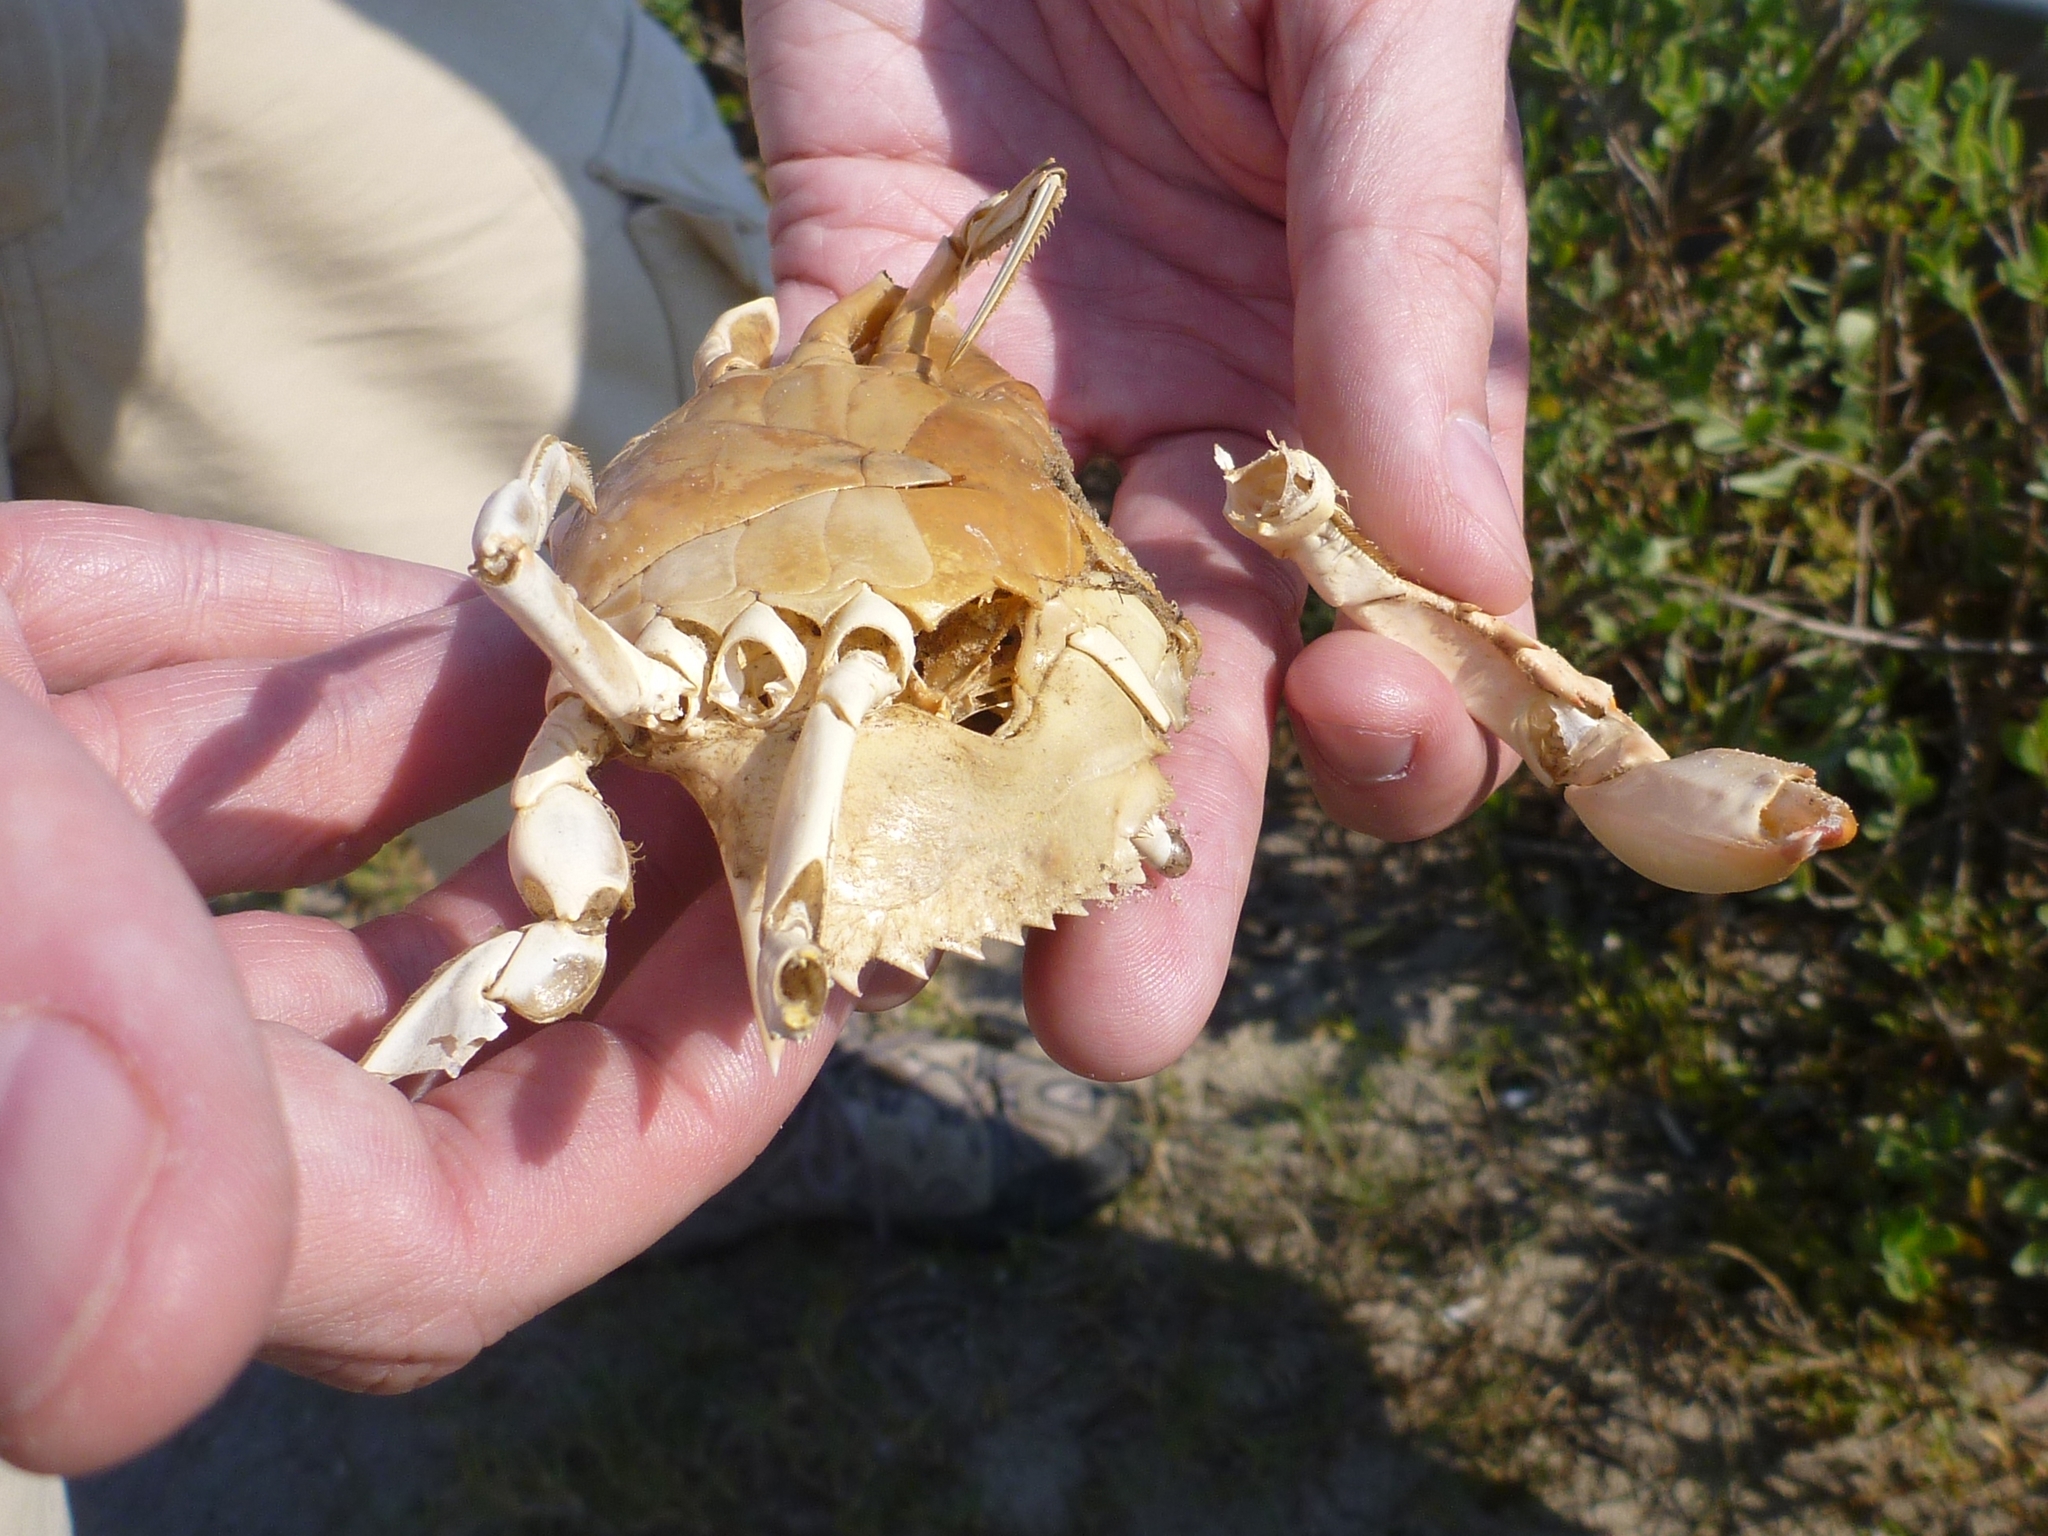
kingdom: Animalia
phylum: Arthropoda
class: Malacostraca
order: Decapoda
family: Portunidae
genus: Callinectes
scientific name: Callinectes sapidus
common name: Blue crab
